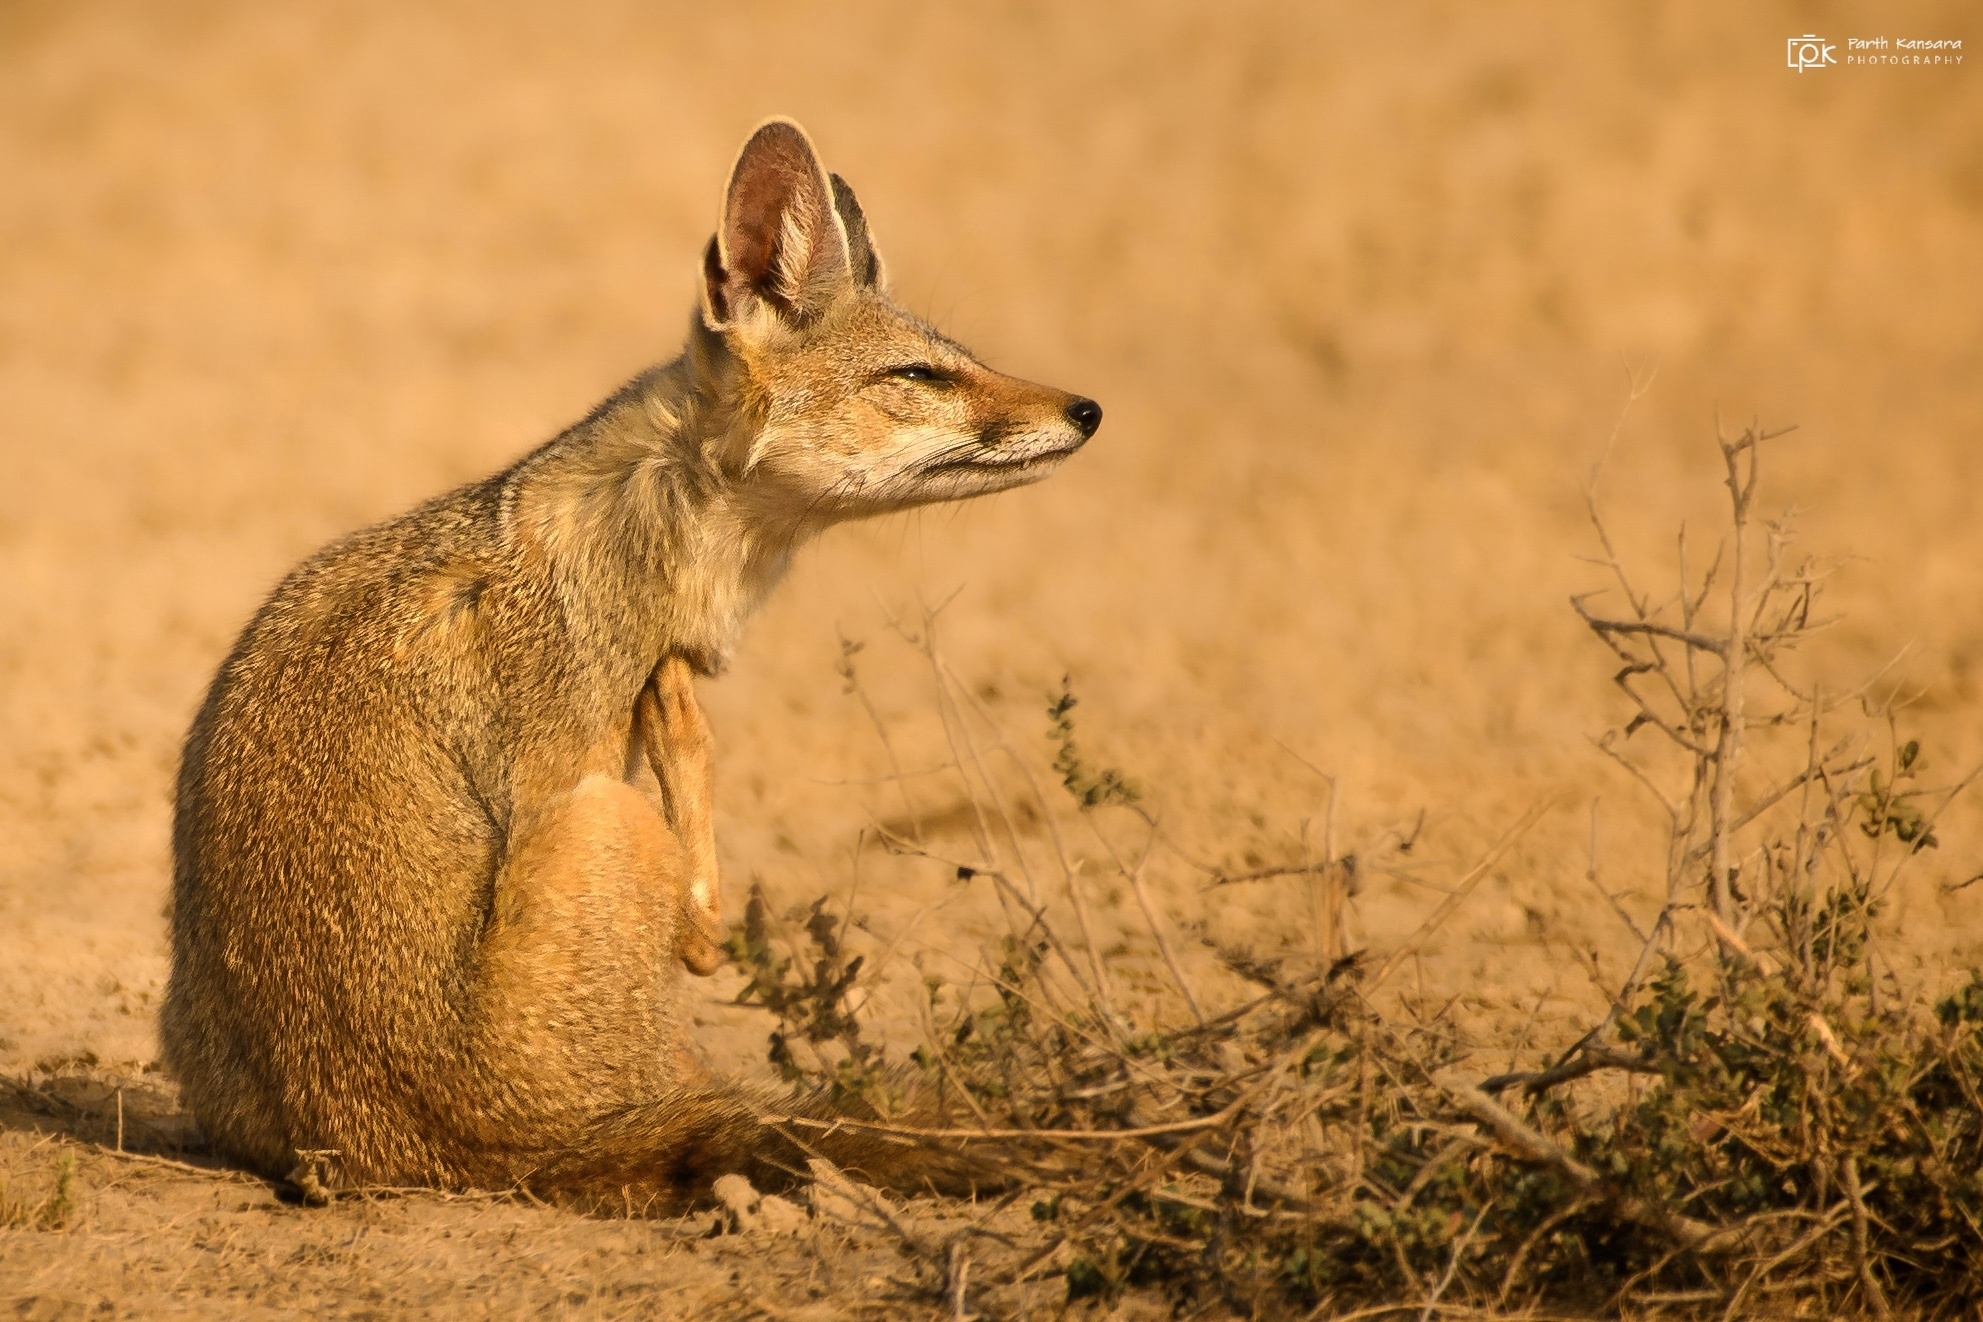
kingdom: Animalia
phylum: Chordata
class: Mammalia
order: Carnivora
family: Canidae
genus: Vulpes
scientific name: Vulpes bengalensis
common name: Bengal fox
